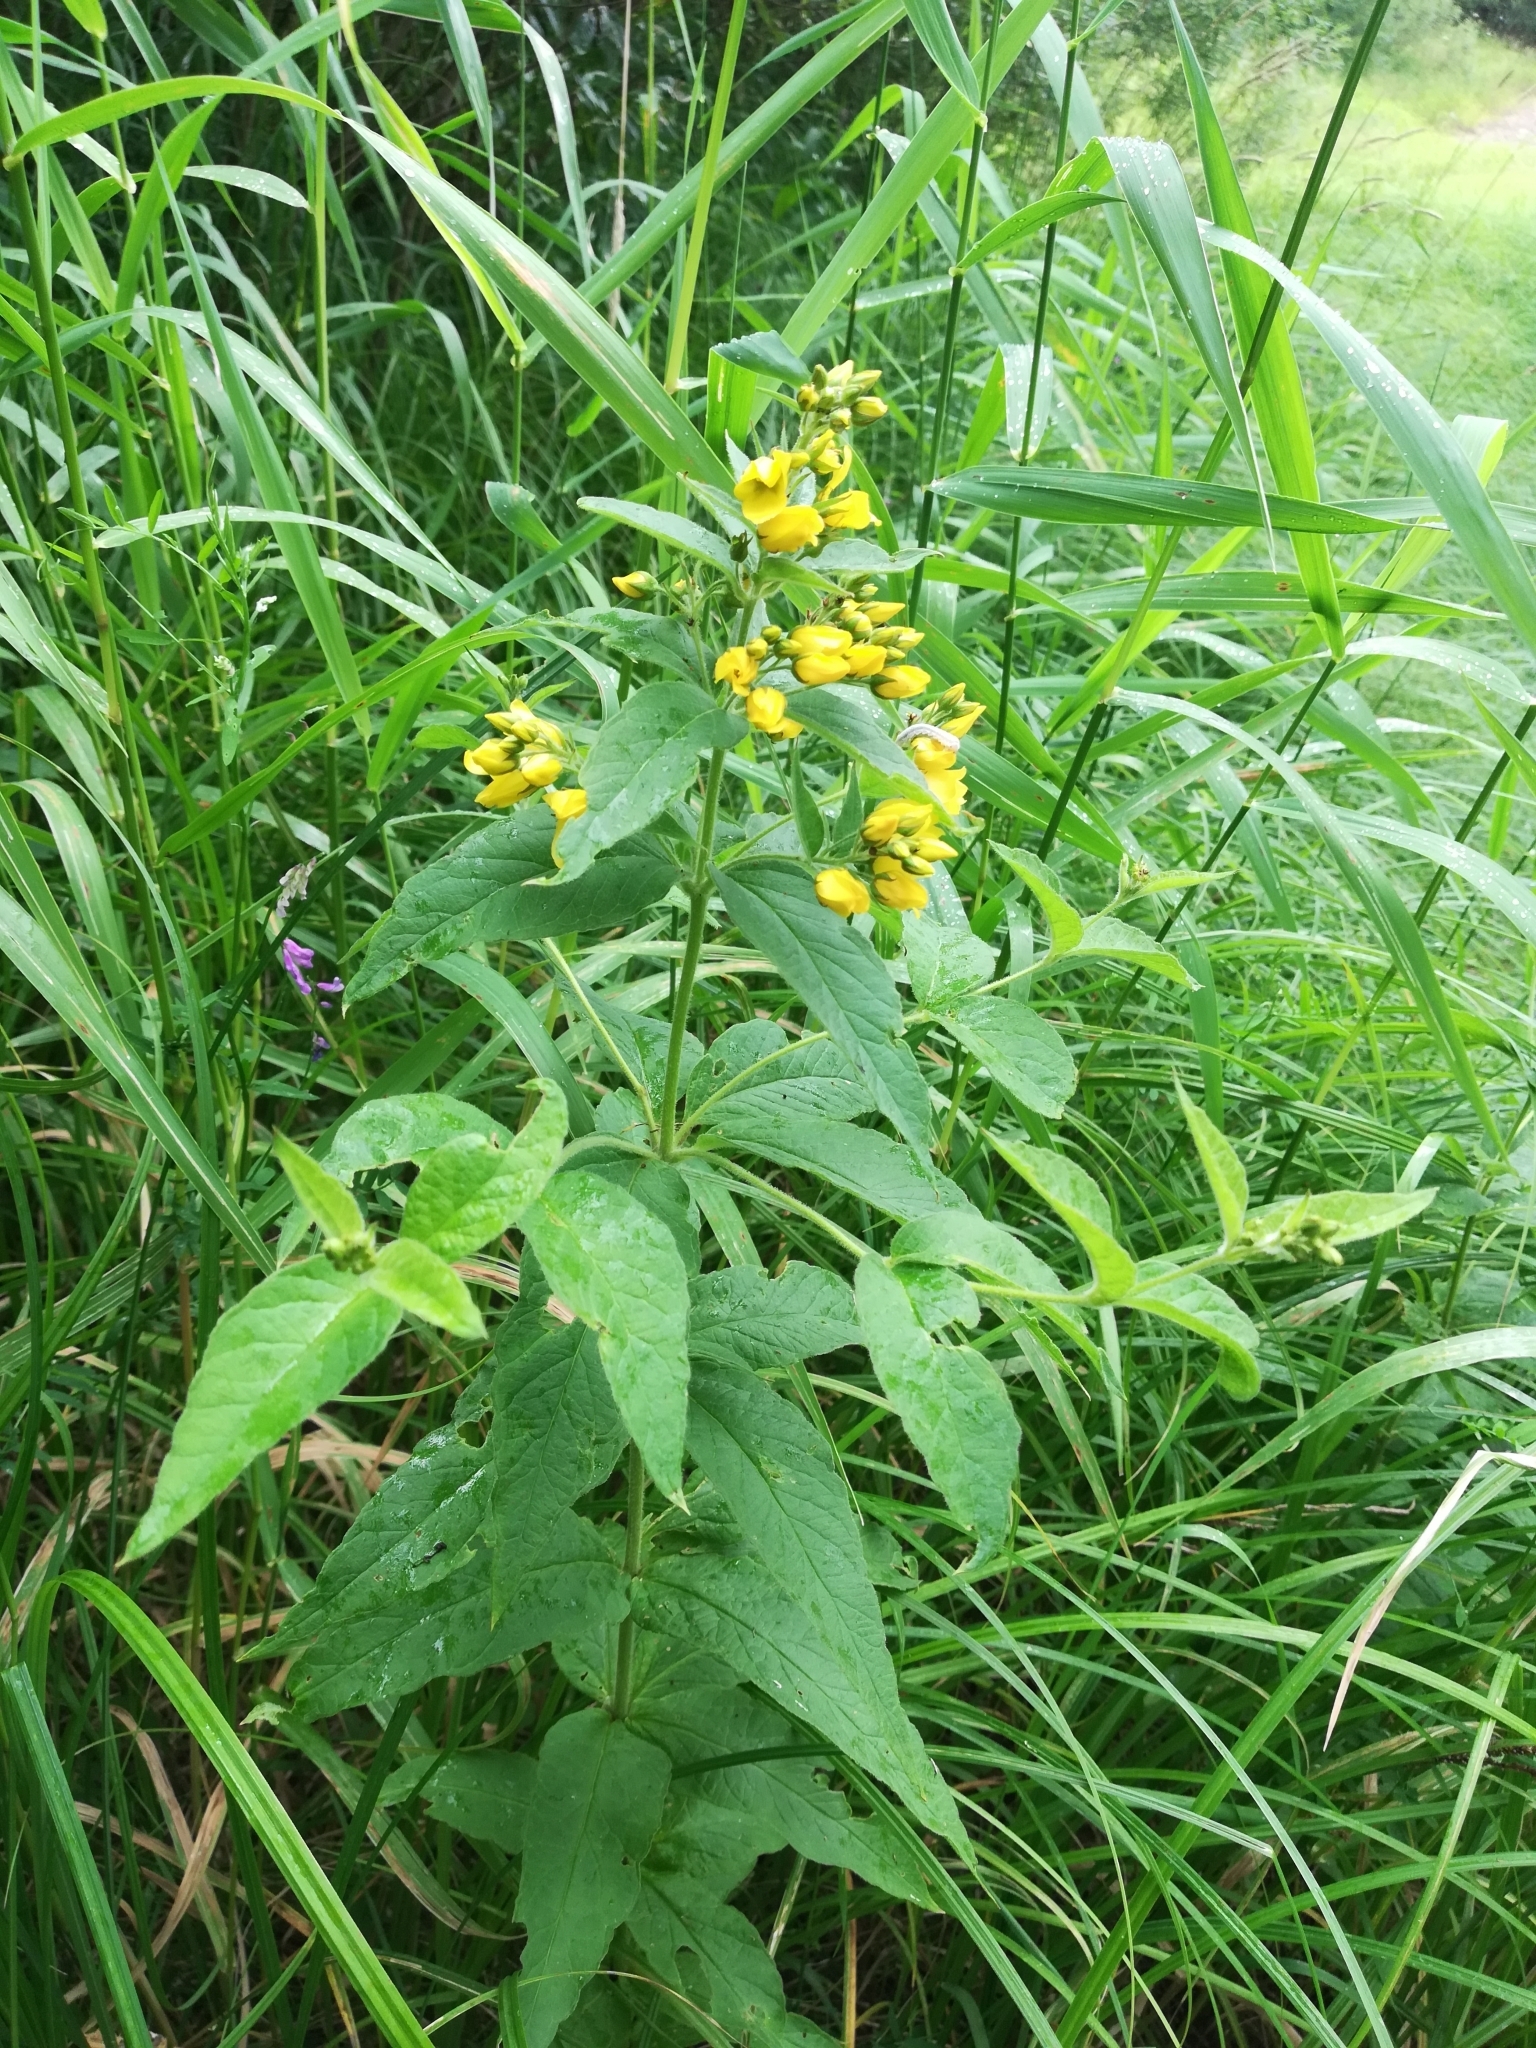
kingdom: Plantae
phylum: Tracheophyta
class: Magnoliopsida
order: Ericales
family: Primulaceae
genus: Lysimachia
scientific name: Lysimachia vulgaris
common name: Yellow loosestrife
